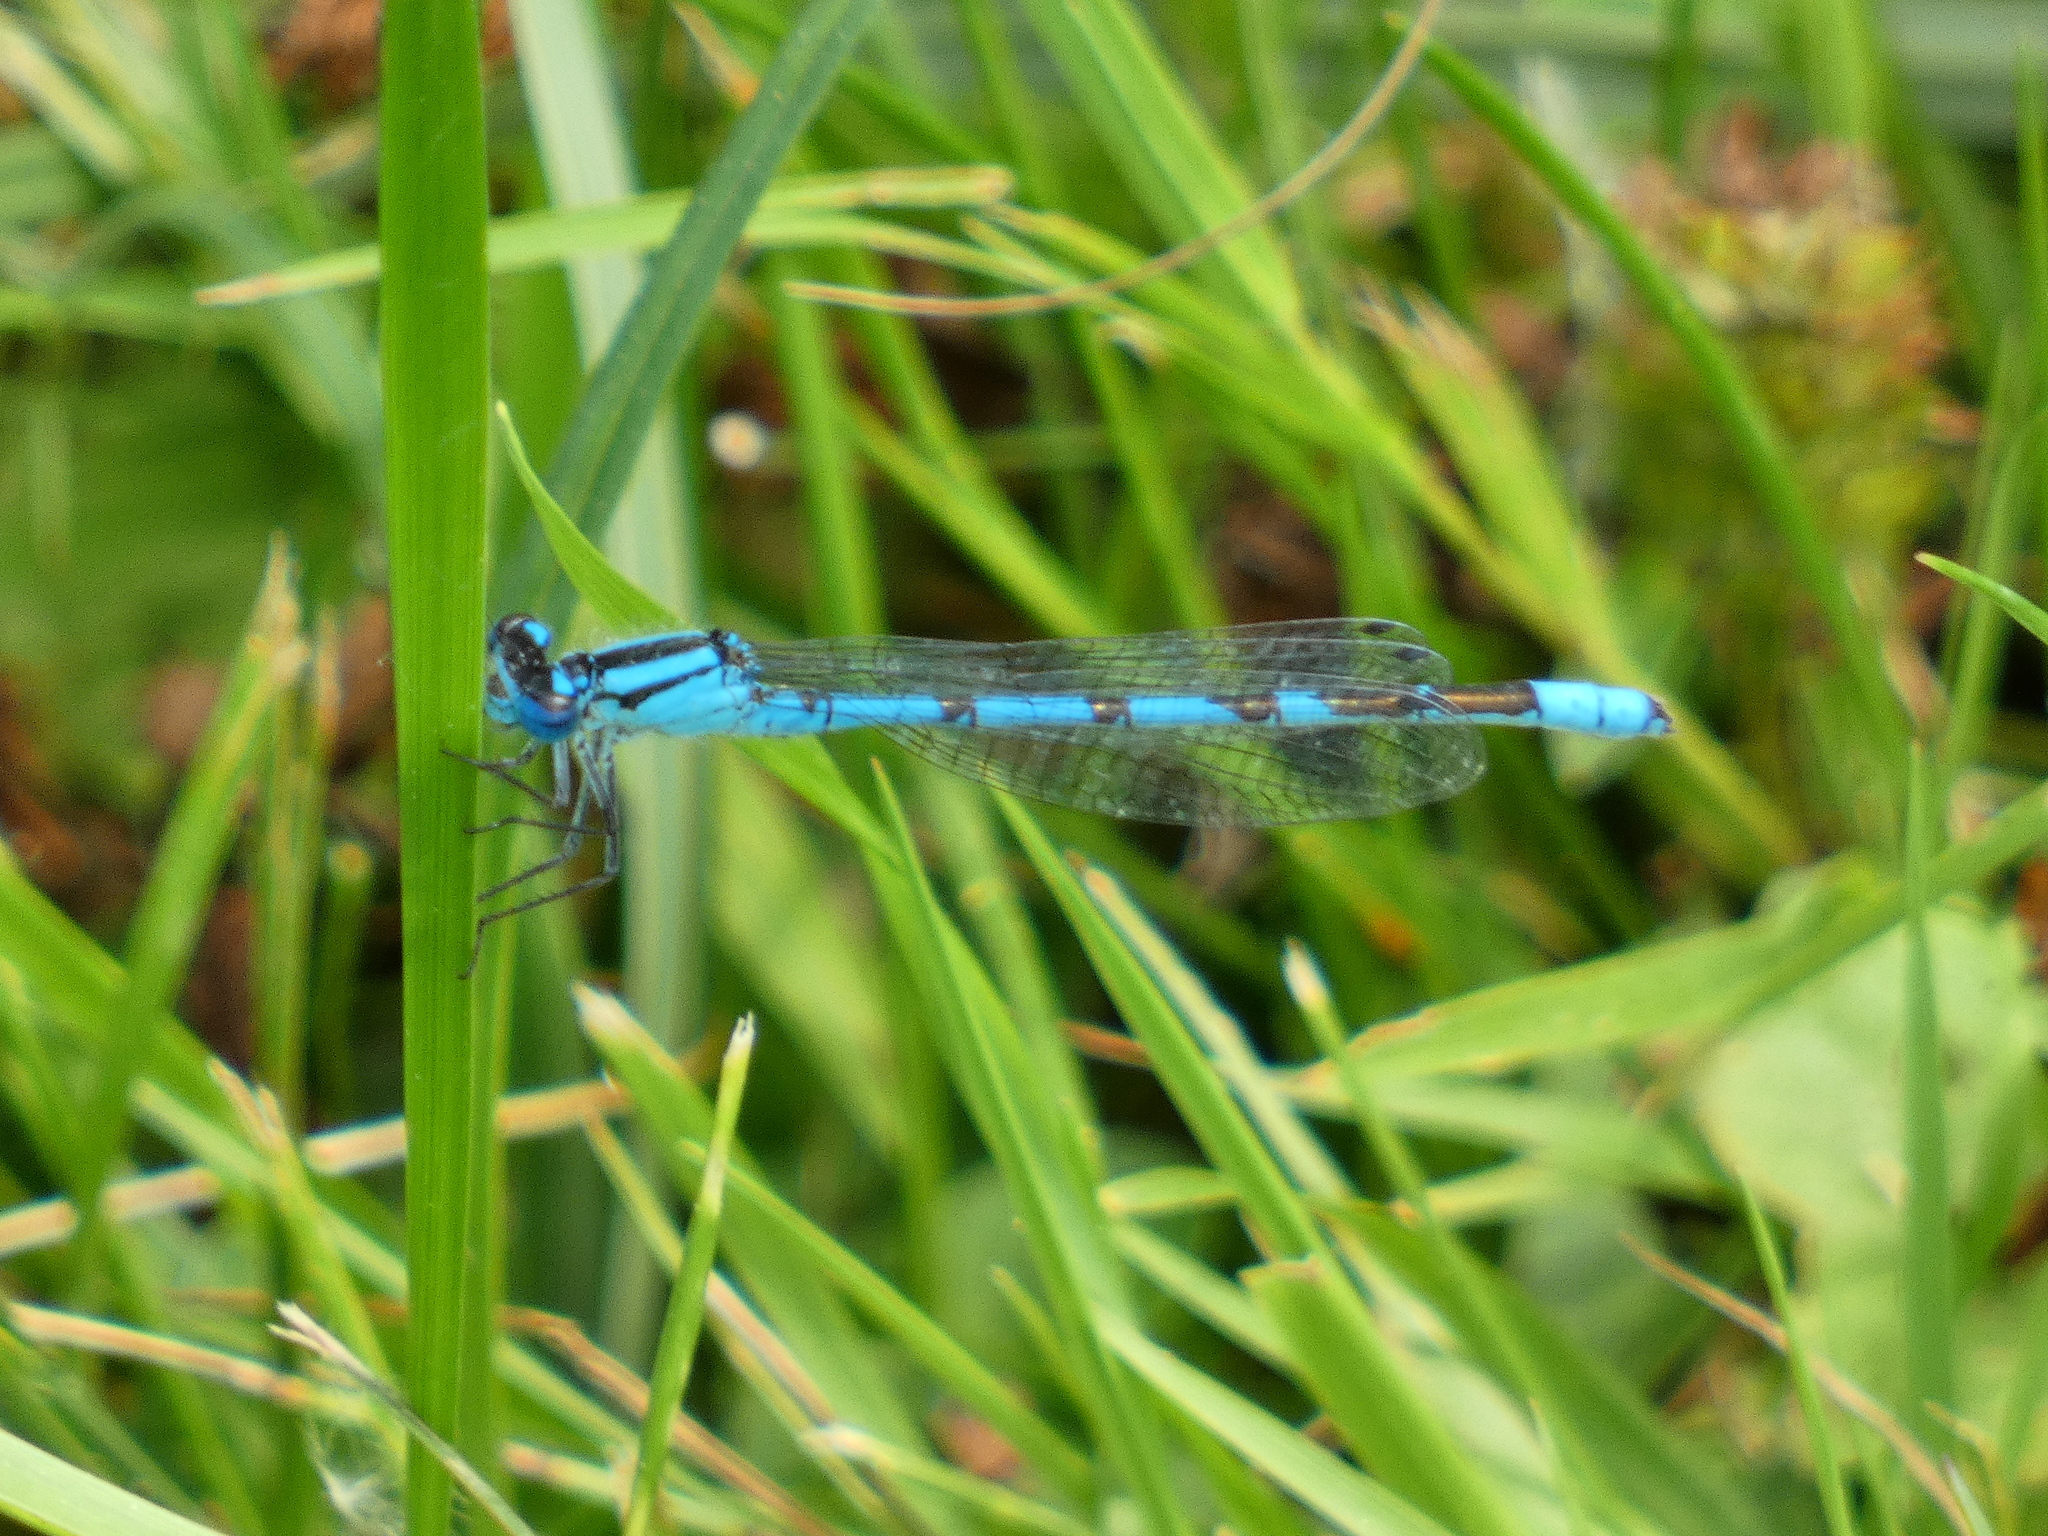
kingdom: Animalia
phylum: Arthropoda
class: Insecta
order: Odonata
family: Coenagrionidae
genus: Enallagma
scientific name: Enallagma cyathigerum
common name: Common blue damselfly
